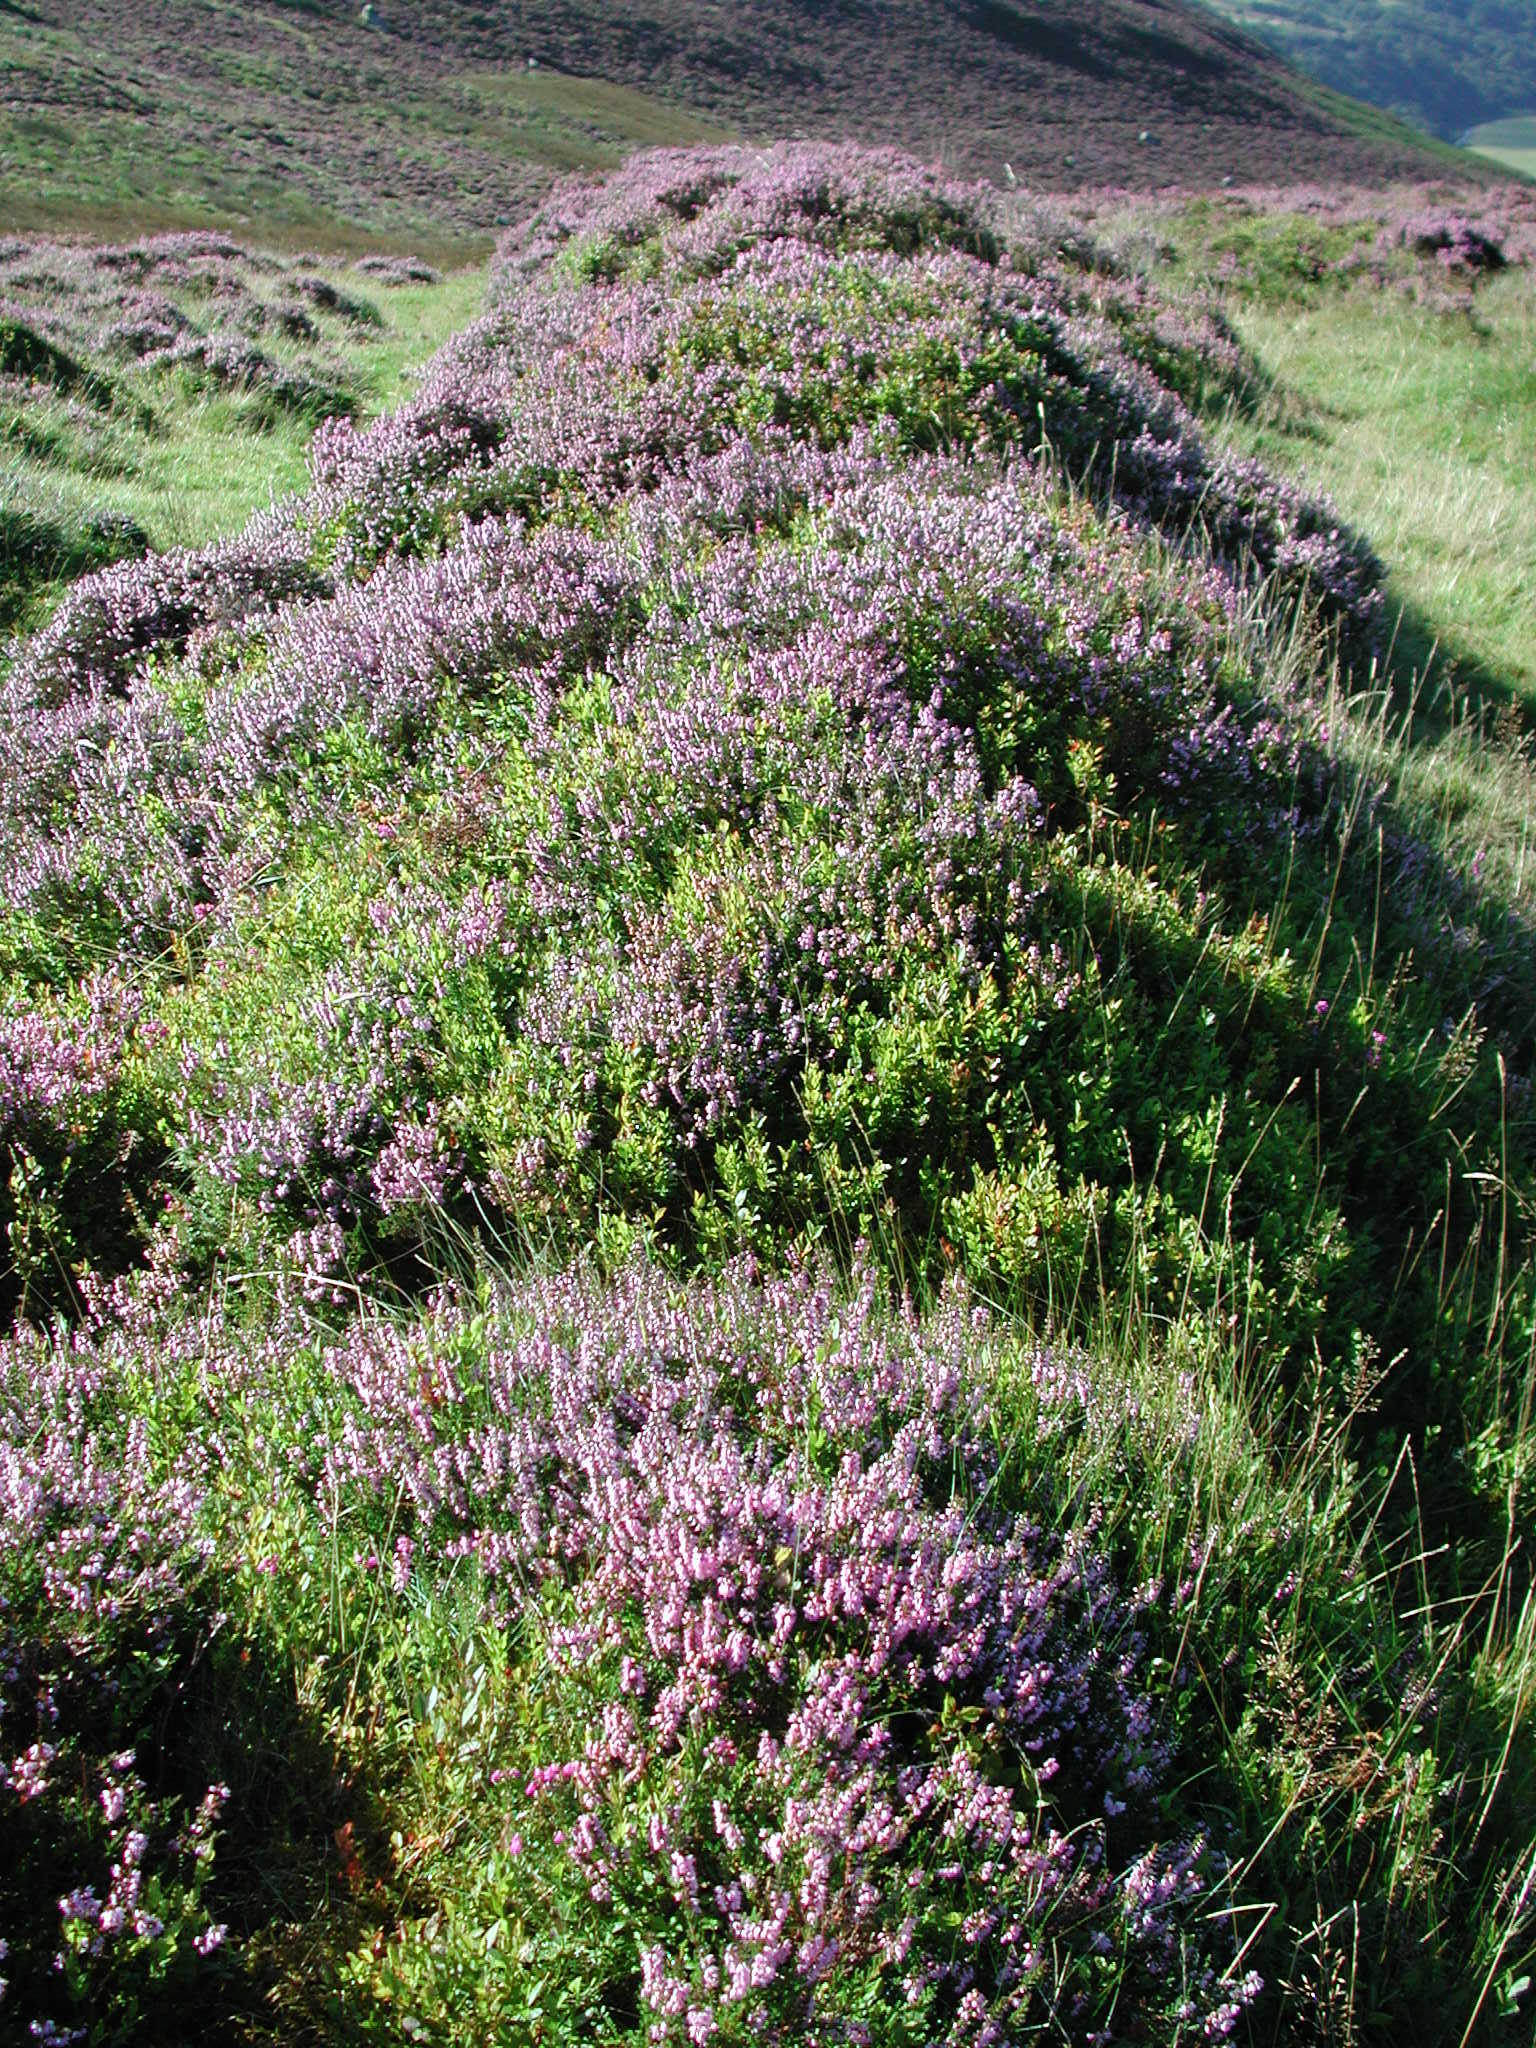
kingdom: Plantae
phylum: Tracheophyta
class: Magnoliopsida
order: Ericales
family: Ericaceae
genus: Calluna
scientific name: Calluna vulgaris
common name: Heather
